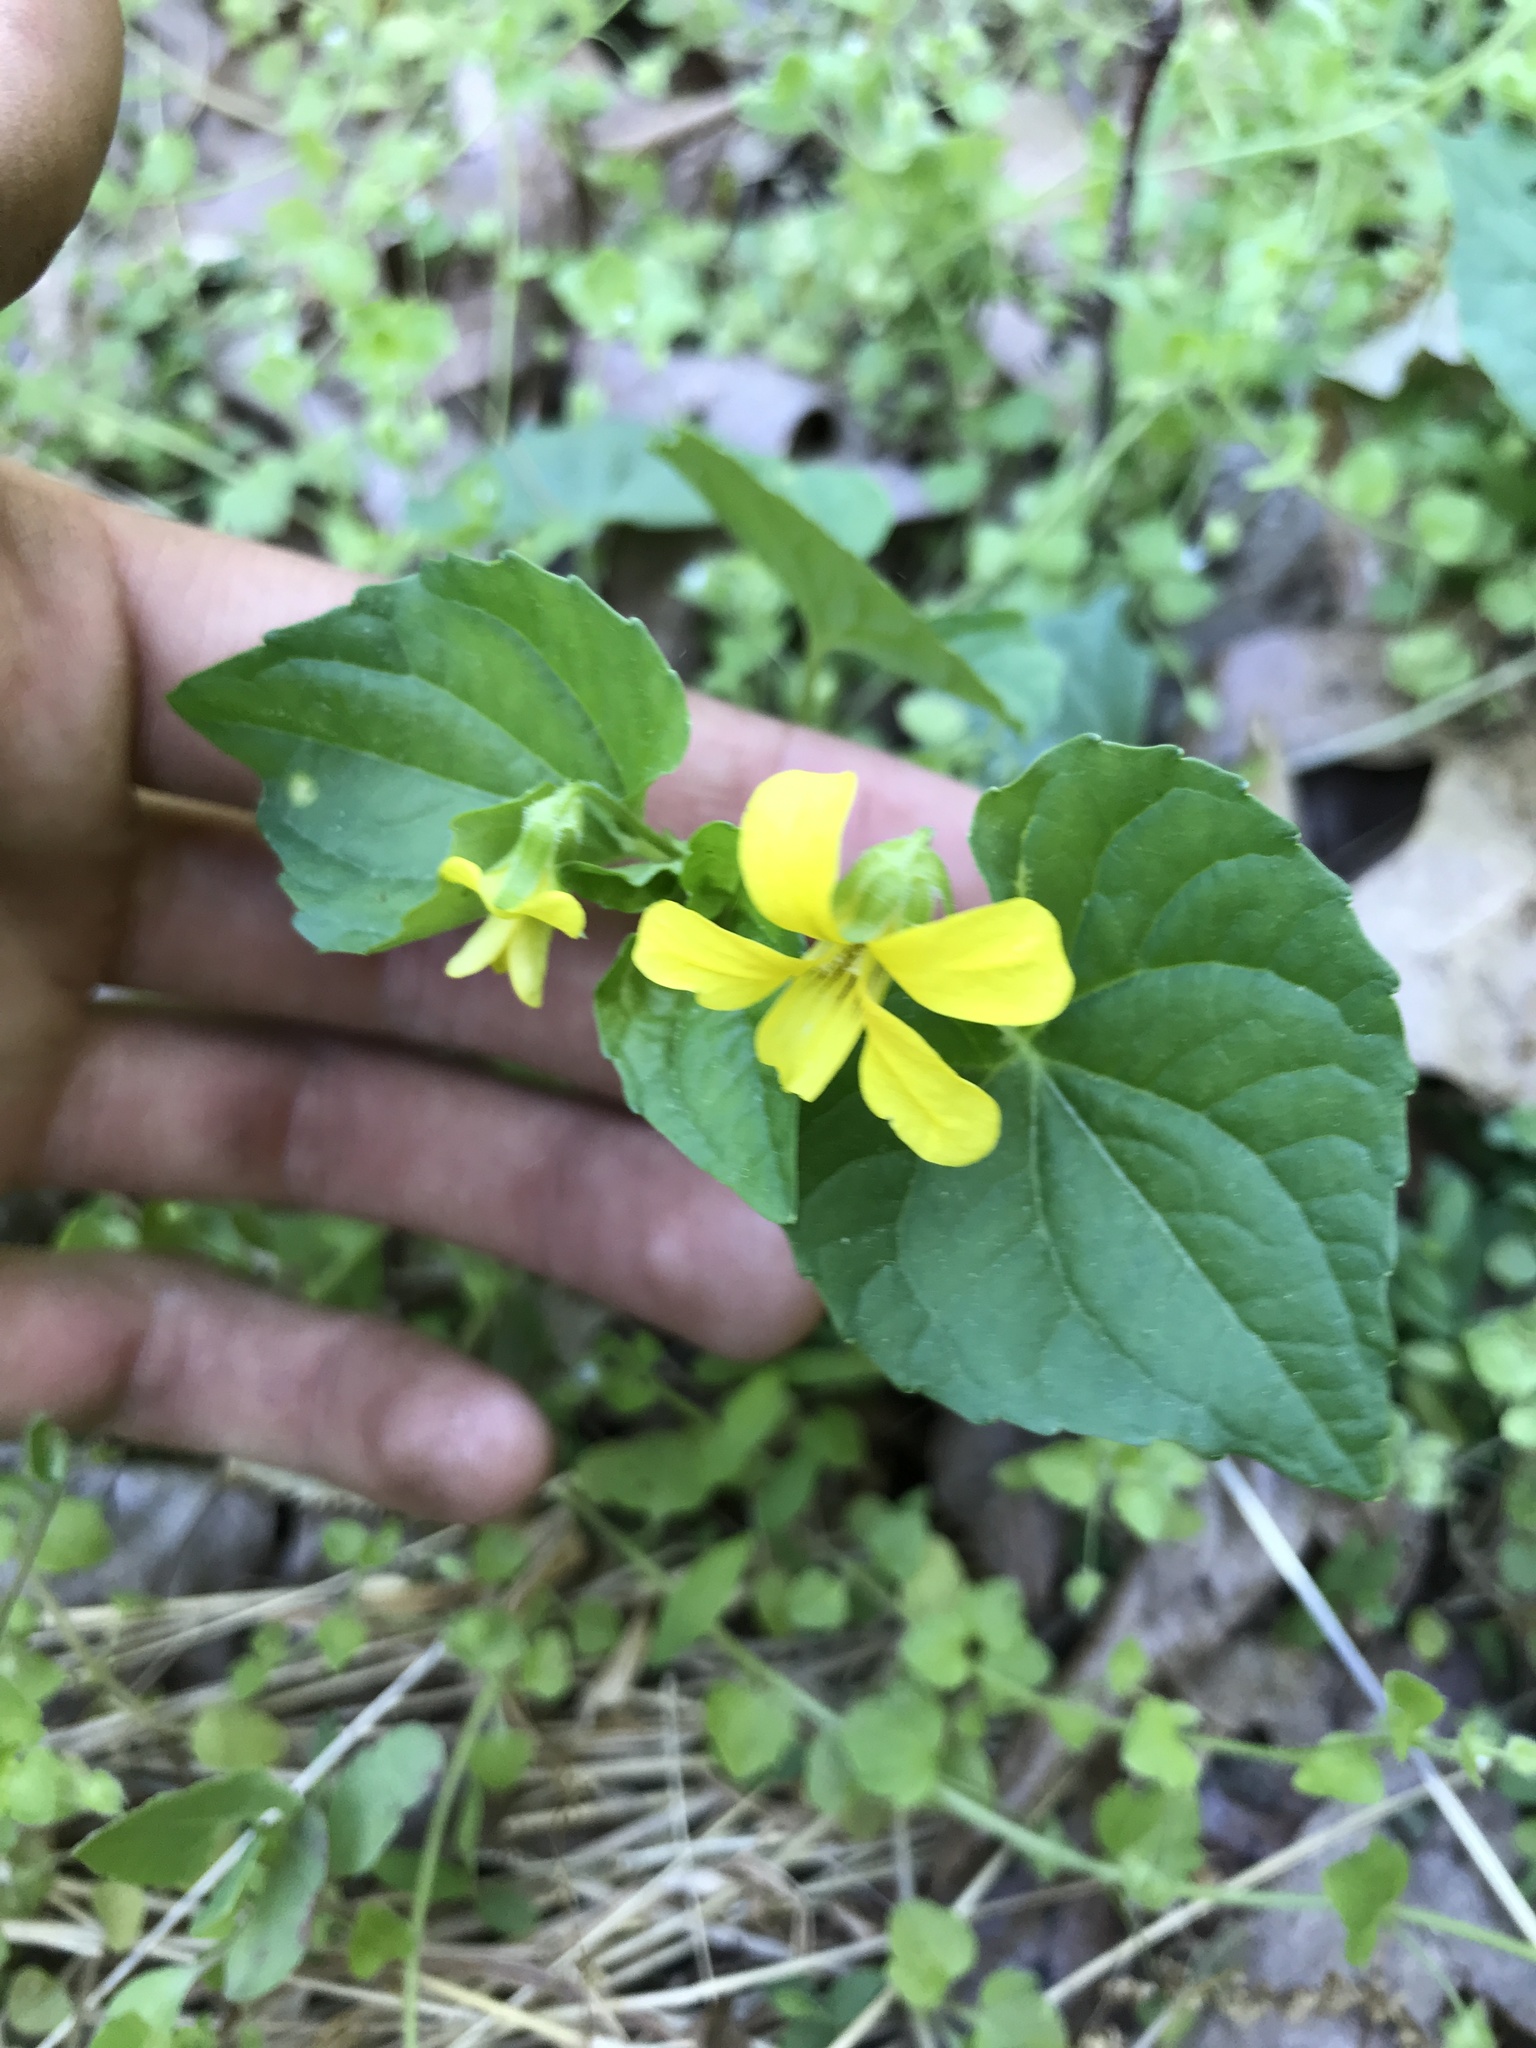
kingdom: Plantae
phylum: Tracheophyta
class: Magnoliopsida
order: Malpighiales
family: Violaceae
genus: Viola
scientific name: Viola eriocarpa
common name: Smooth yellow violet
